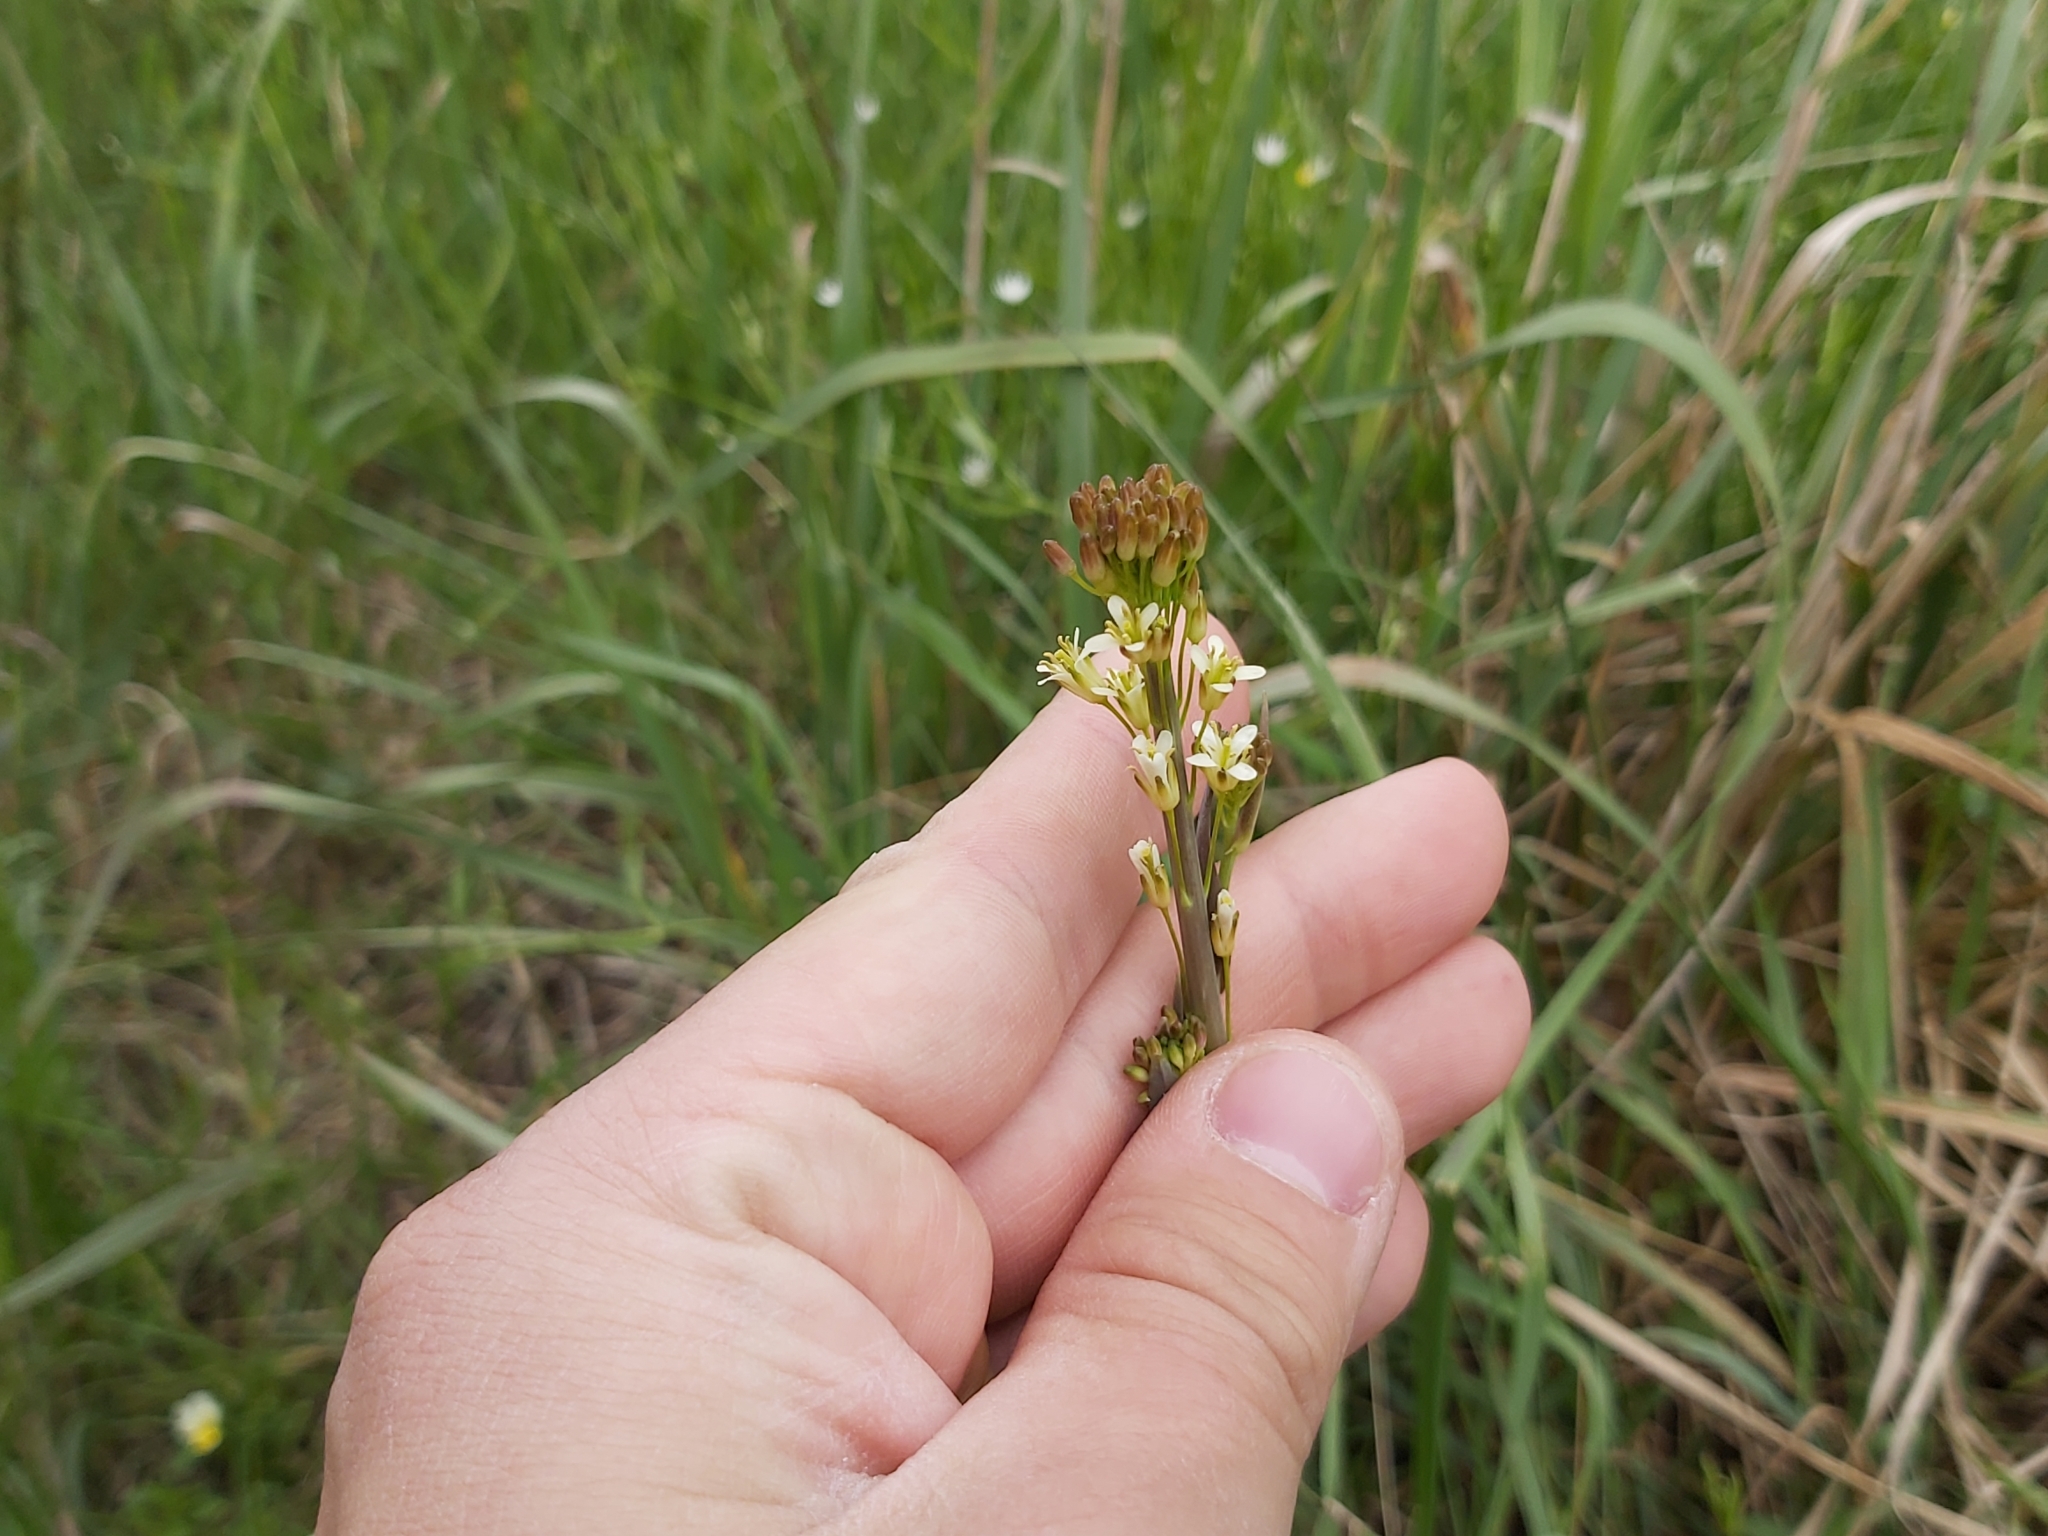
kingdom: Plantae
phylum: Tracheophyta
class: Magnoliopsida
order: Brassicales
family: Brassicaceae
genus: Turritis
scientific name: Turritis glabra
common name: Tower rockcress
